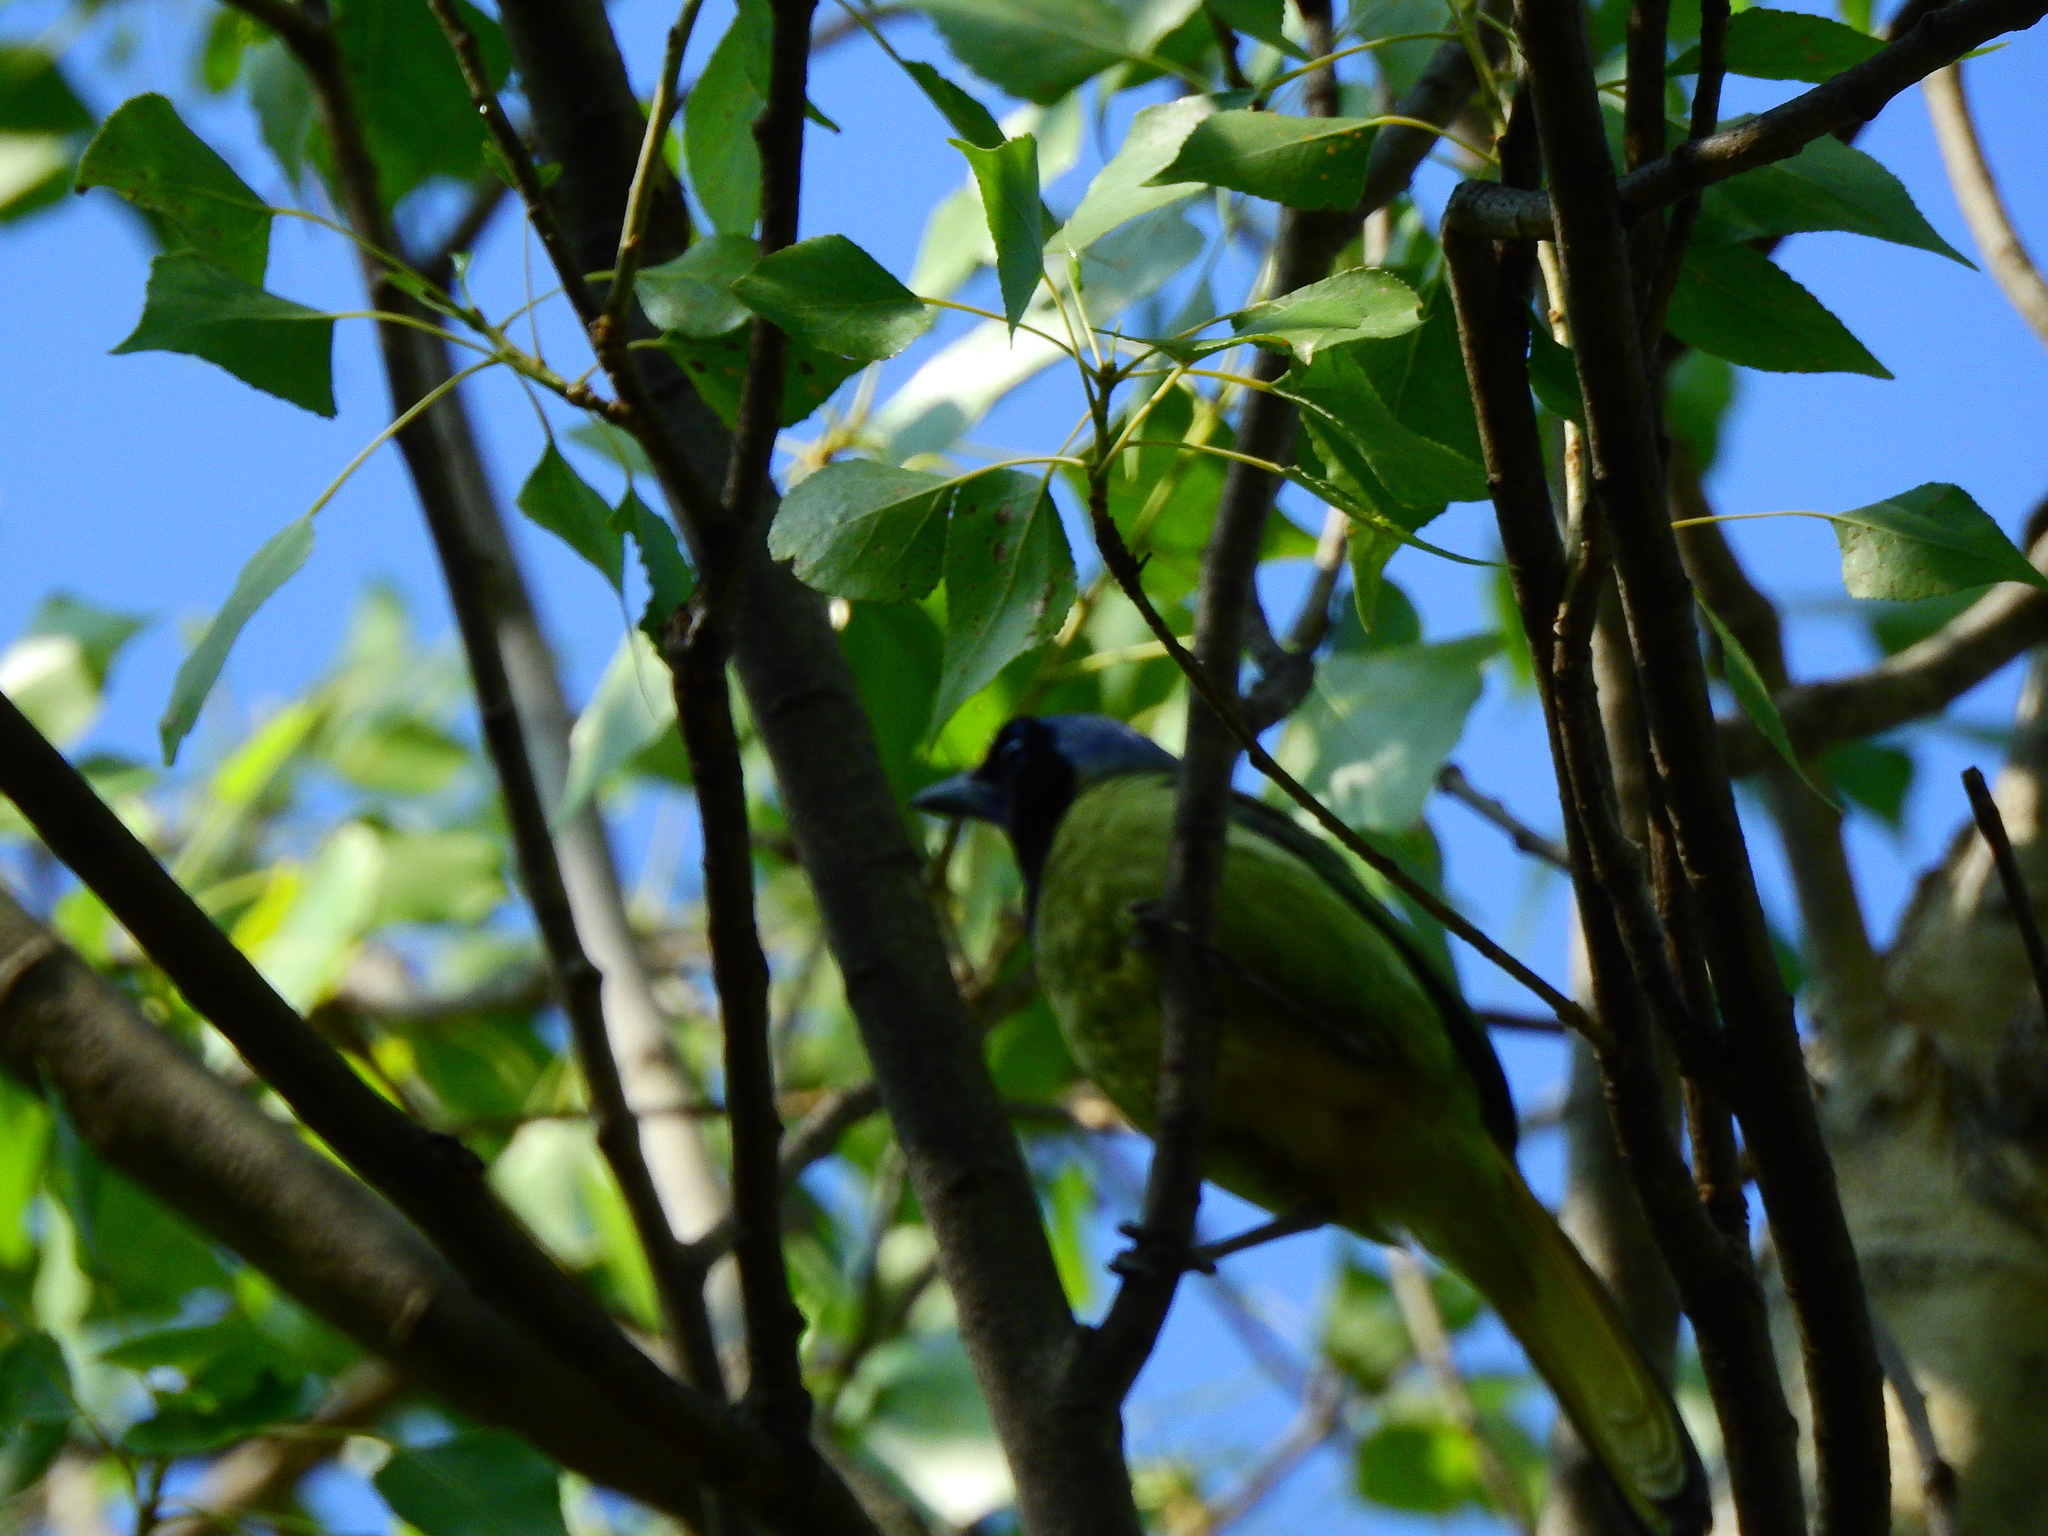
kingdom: Animalia
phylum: Chordata
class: Aves
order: Passeriformes
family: Corvidae
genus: Cyanocorax
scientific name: Cyanocorax yncas
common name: Green jay
